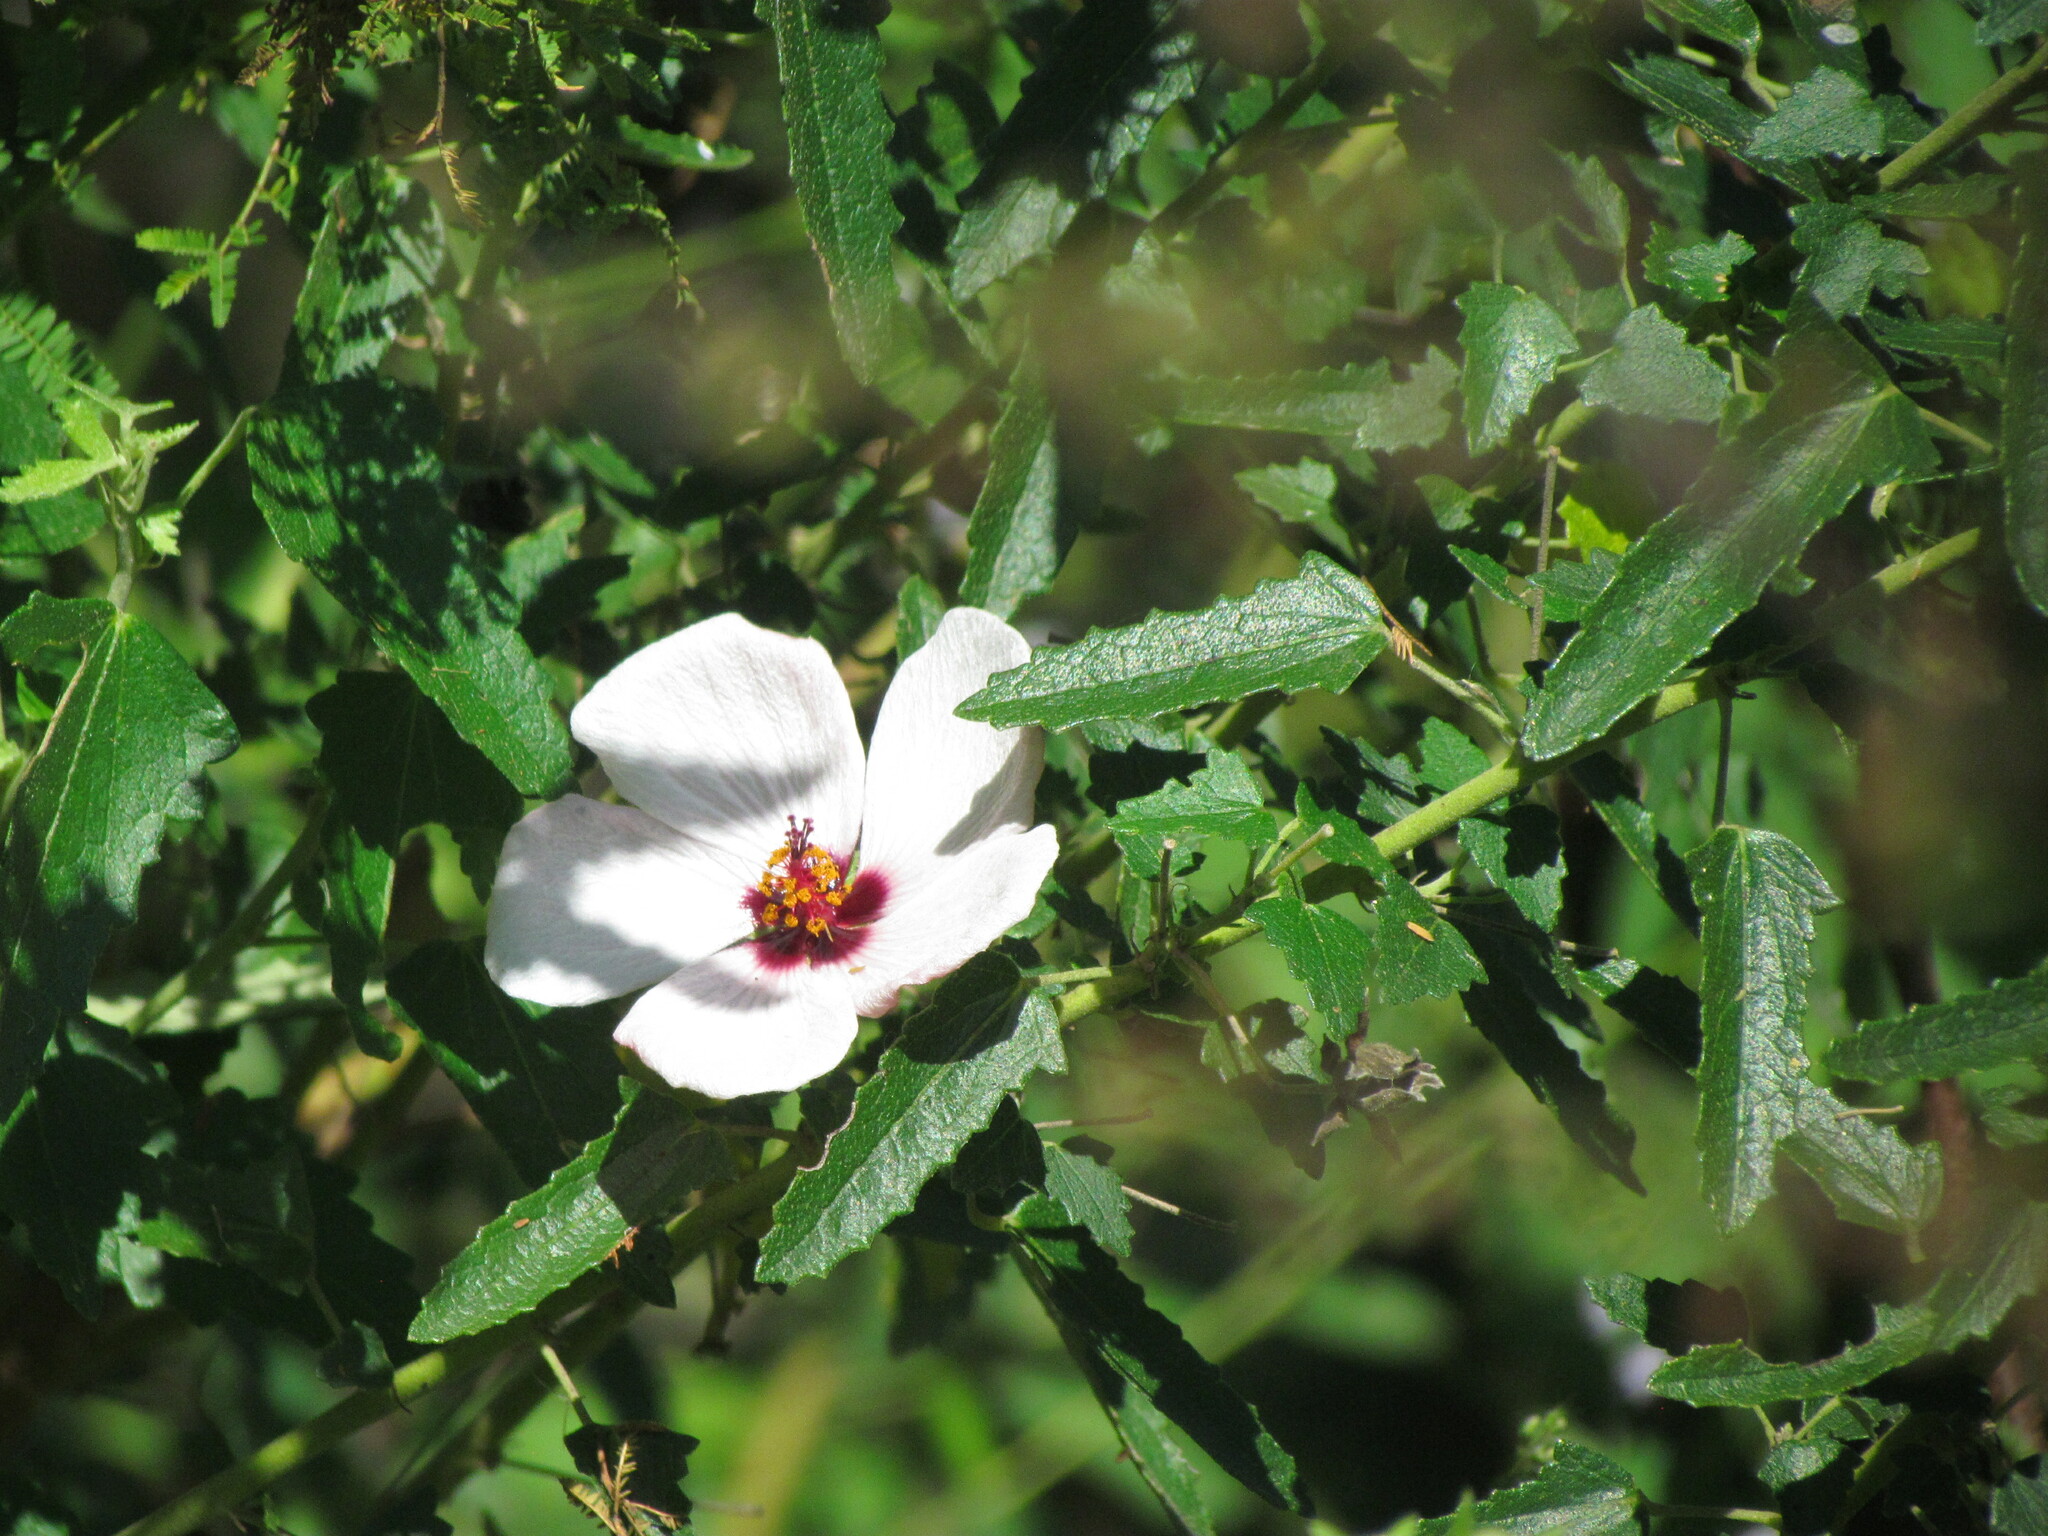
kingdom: Plantae
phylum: Tracheophyta
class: Magnoliopsida
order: Malvales
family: Malvaceae
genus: Pavonia
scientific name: Pavonia hastata
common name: Spearleaf swampmallow
